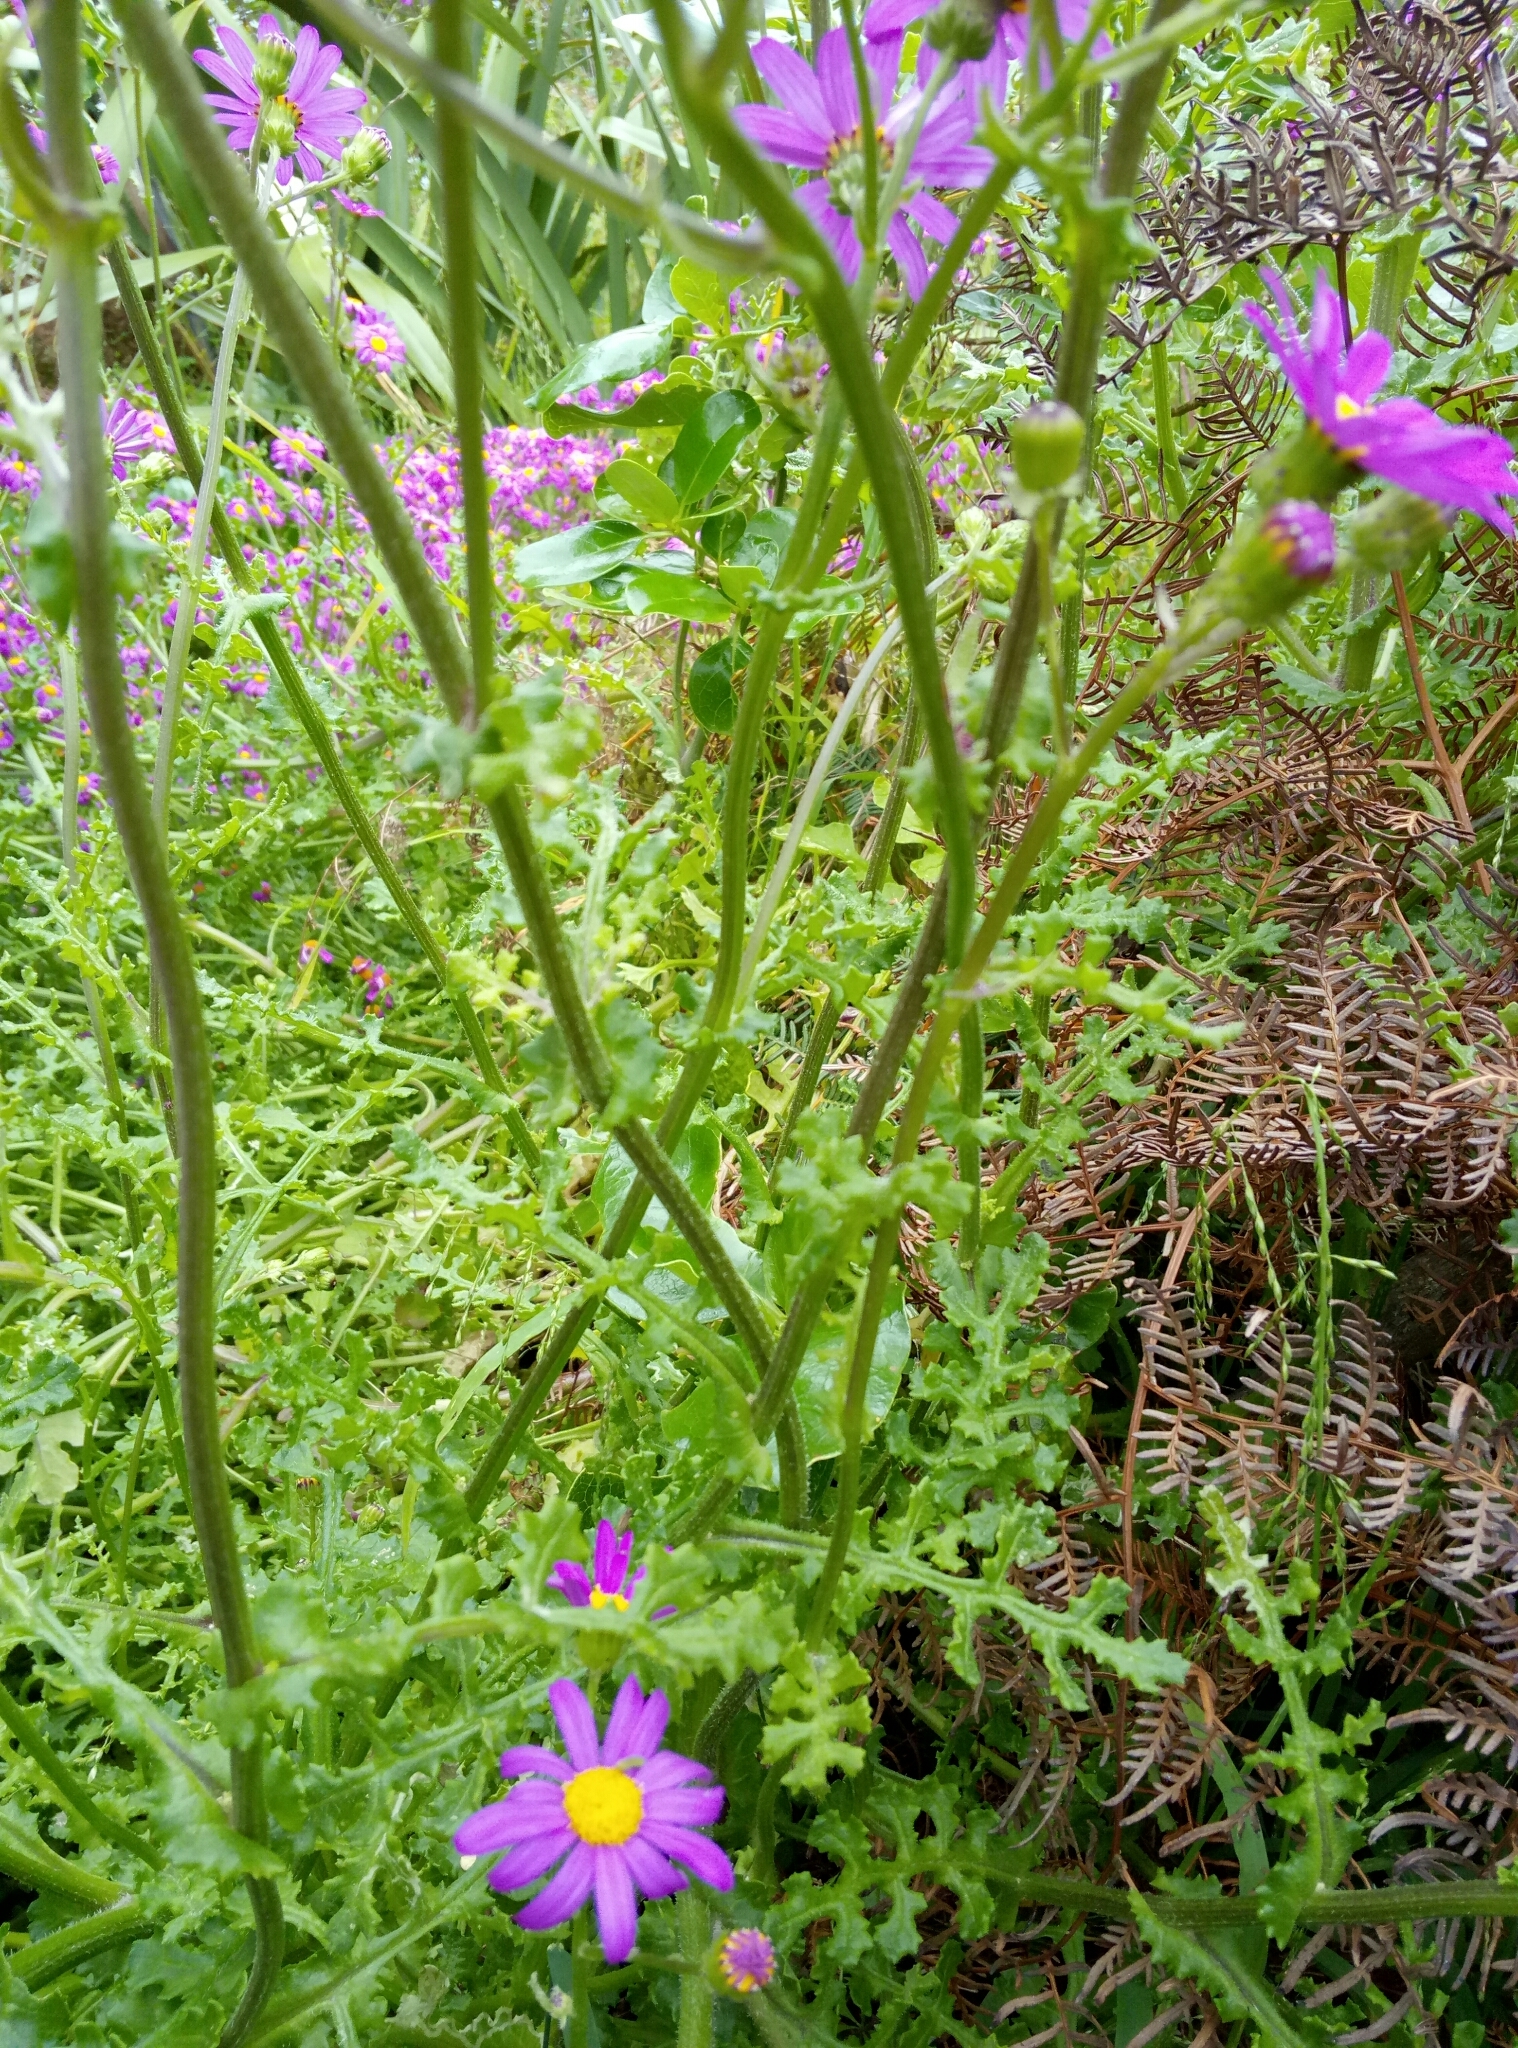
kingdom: Plantae
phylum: Tracheophyta
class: Magnoliopsida
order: Asterales
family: Asteraceae
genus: Senecio
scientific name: Senecio elegans
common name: Purple groundsel
